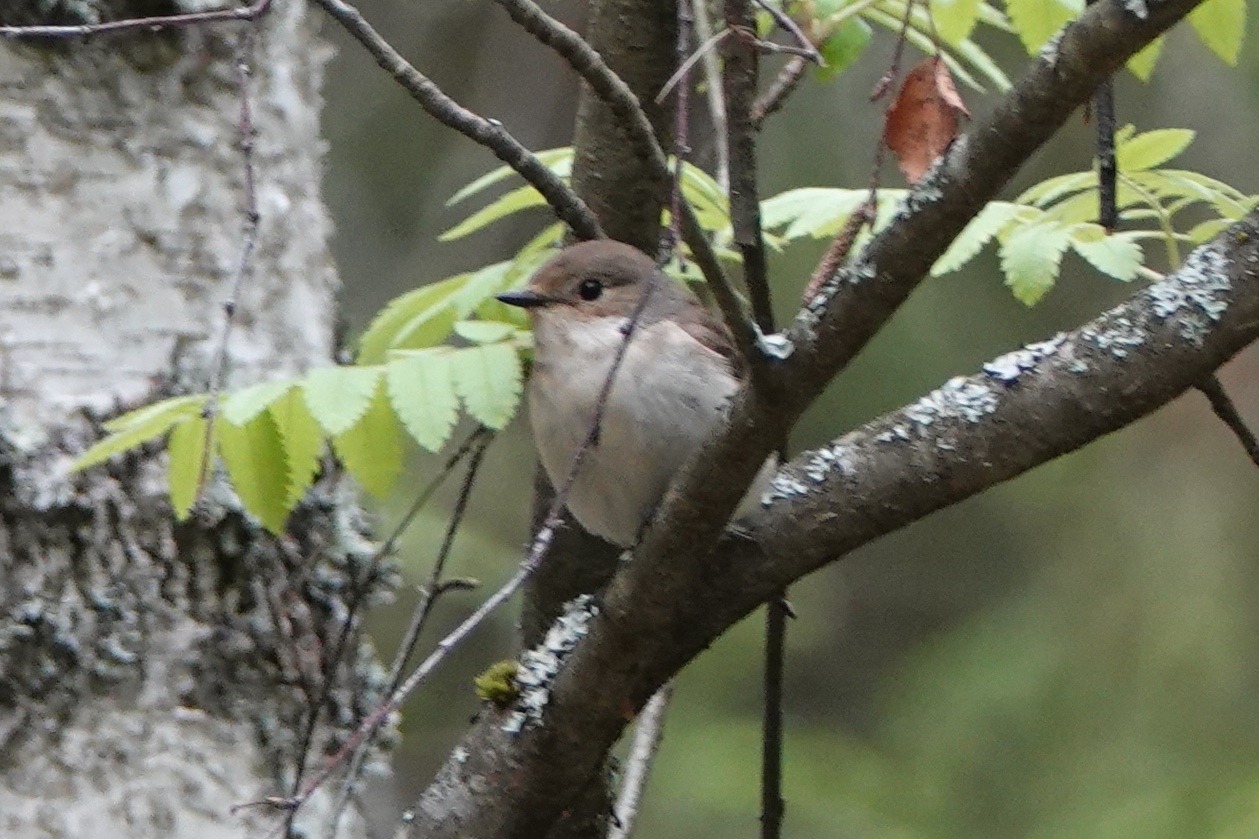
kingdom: Animalia
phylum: Chordata
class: Aves
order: Passeriformes
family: Muscicapidae
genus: Ficedula
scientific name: Ficedula hypoleuca
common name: European pied flycatcher
